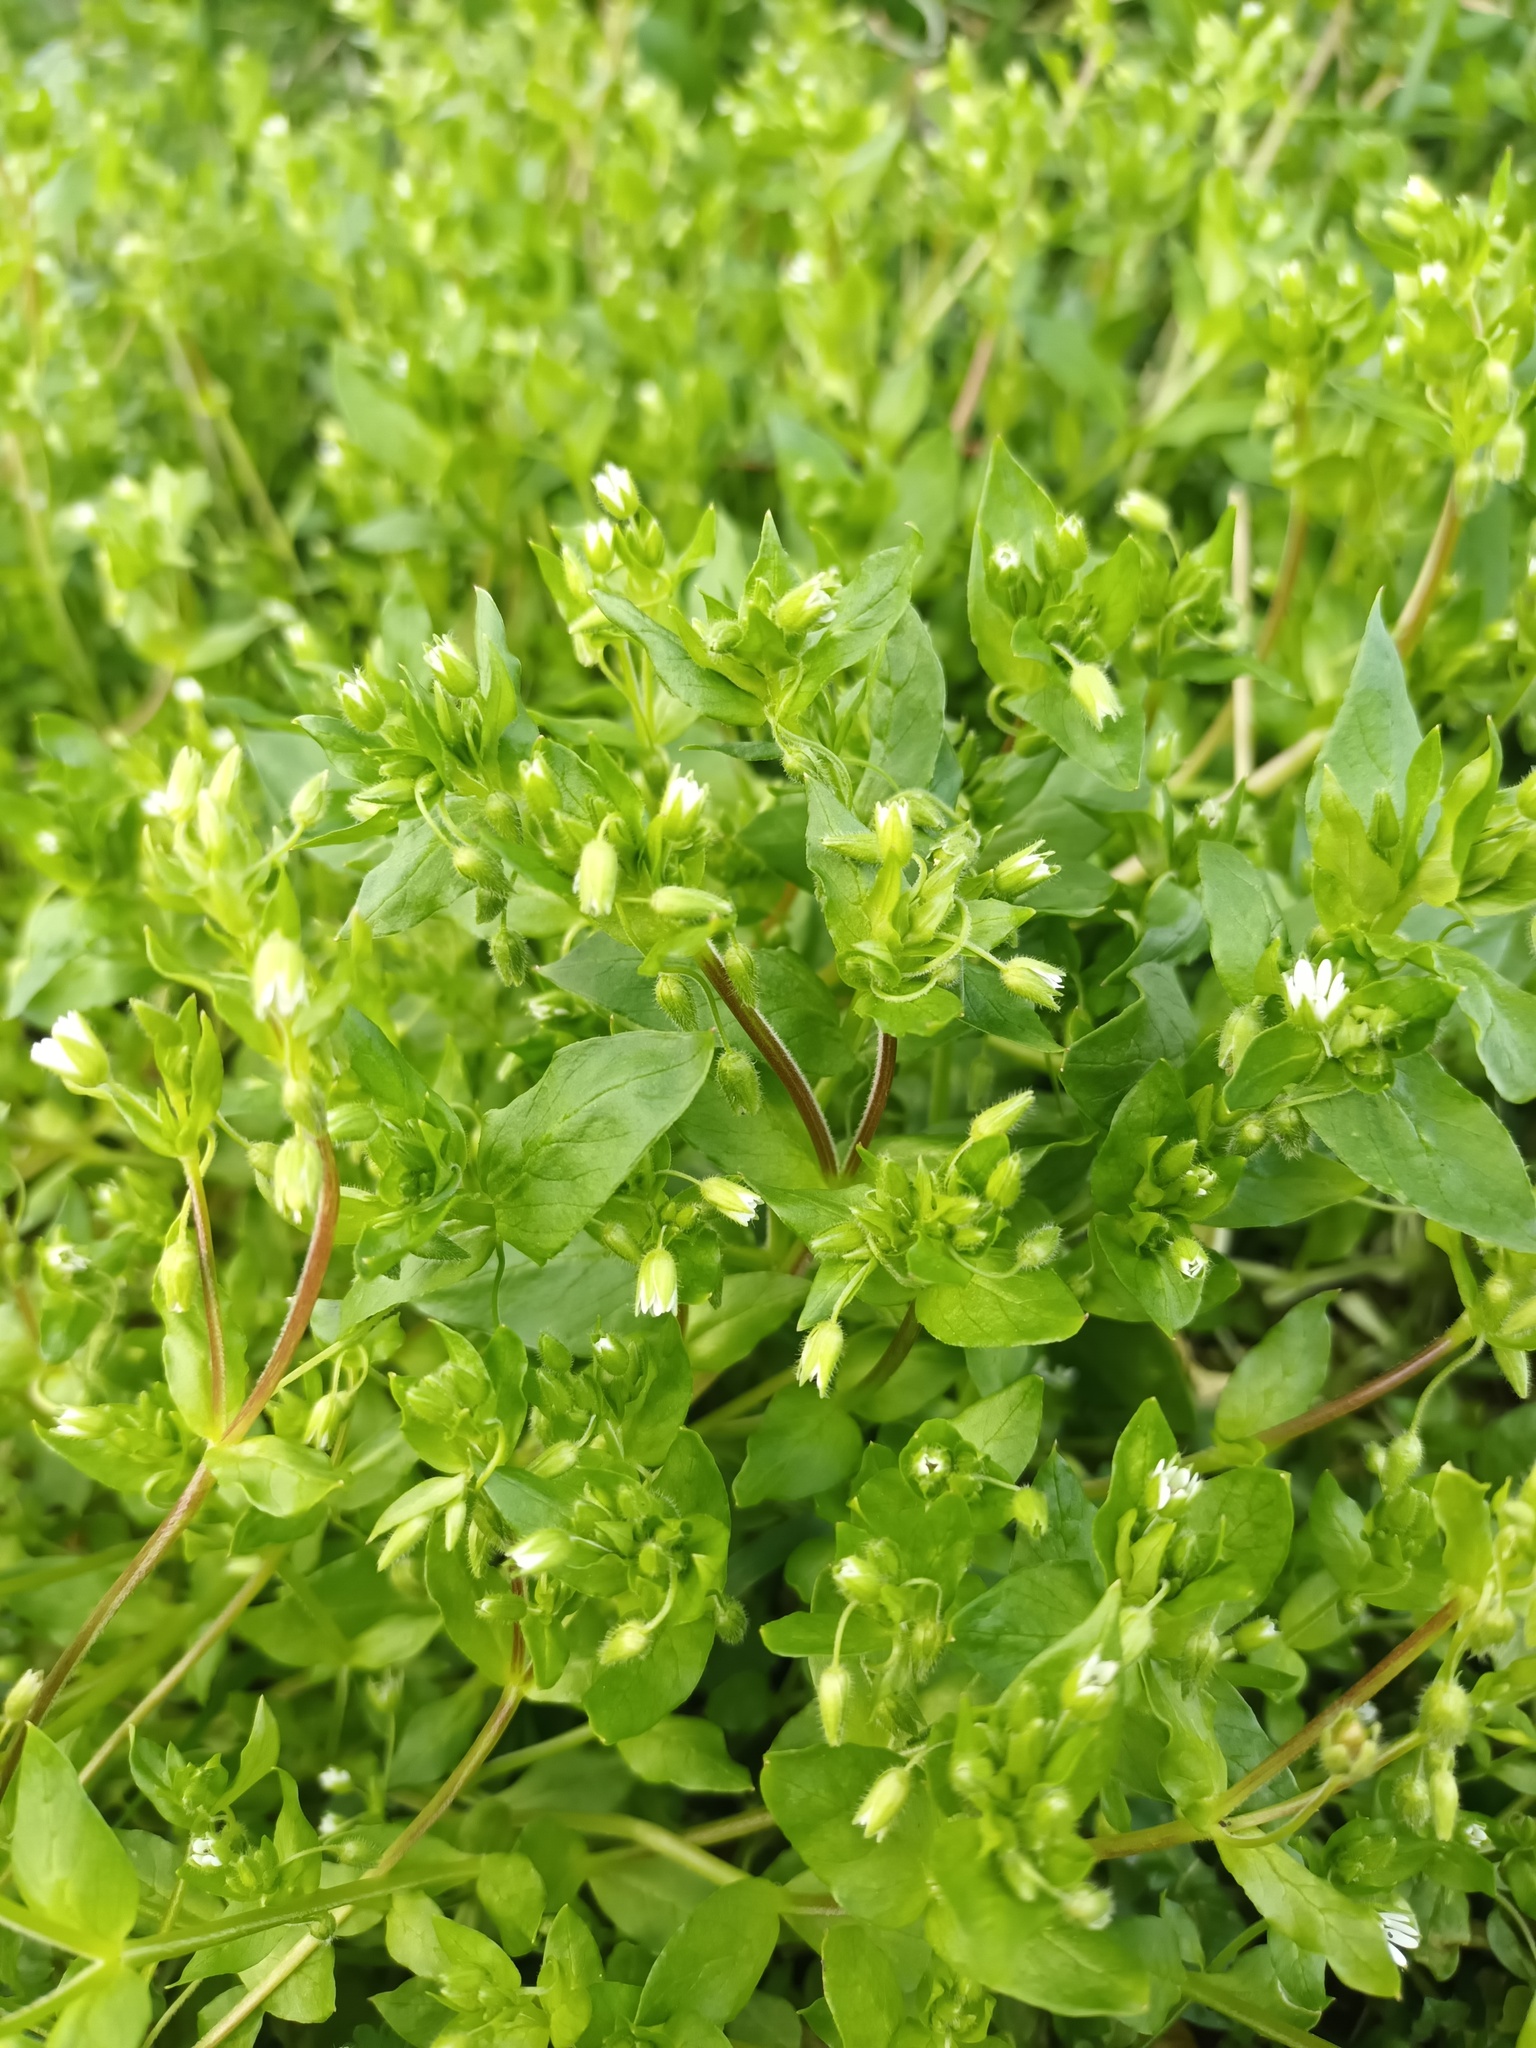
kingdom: Plantae
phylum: Tracheophyta
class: Magnoliopsida
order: Caryophyllales
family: Caryophyllaceae
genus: Stellaria
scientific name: Stellaria media
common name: Common chickweed
